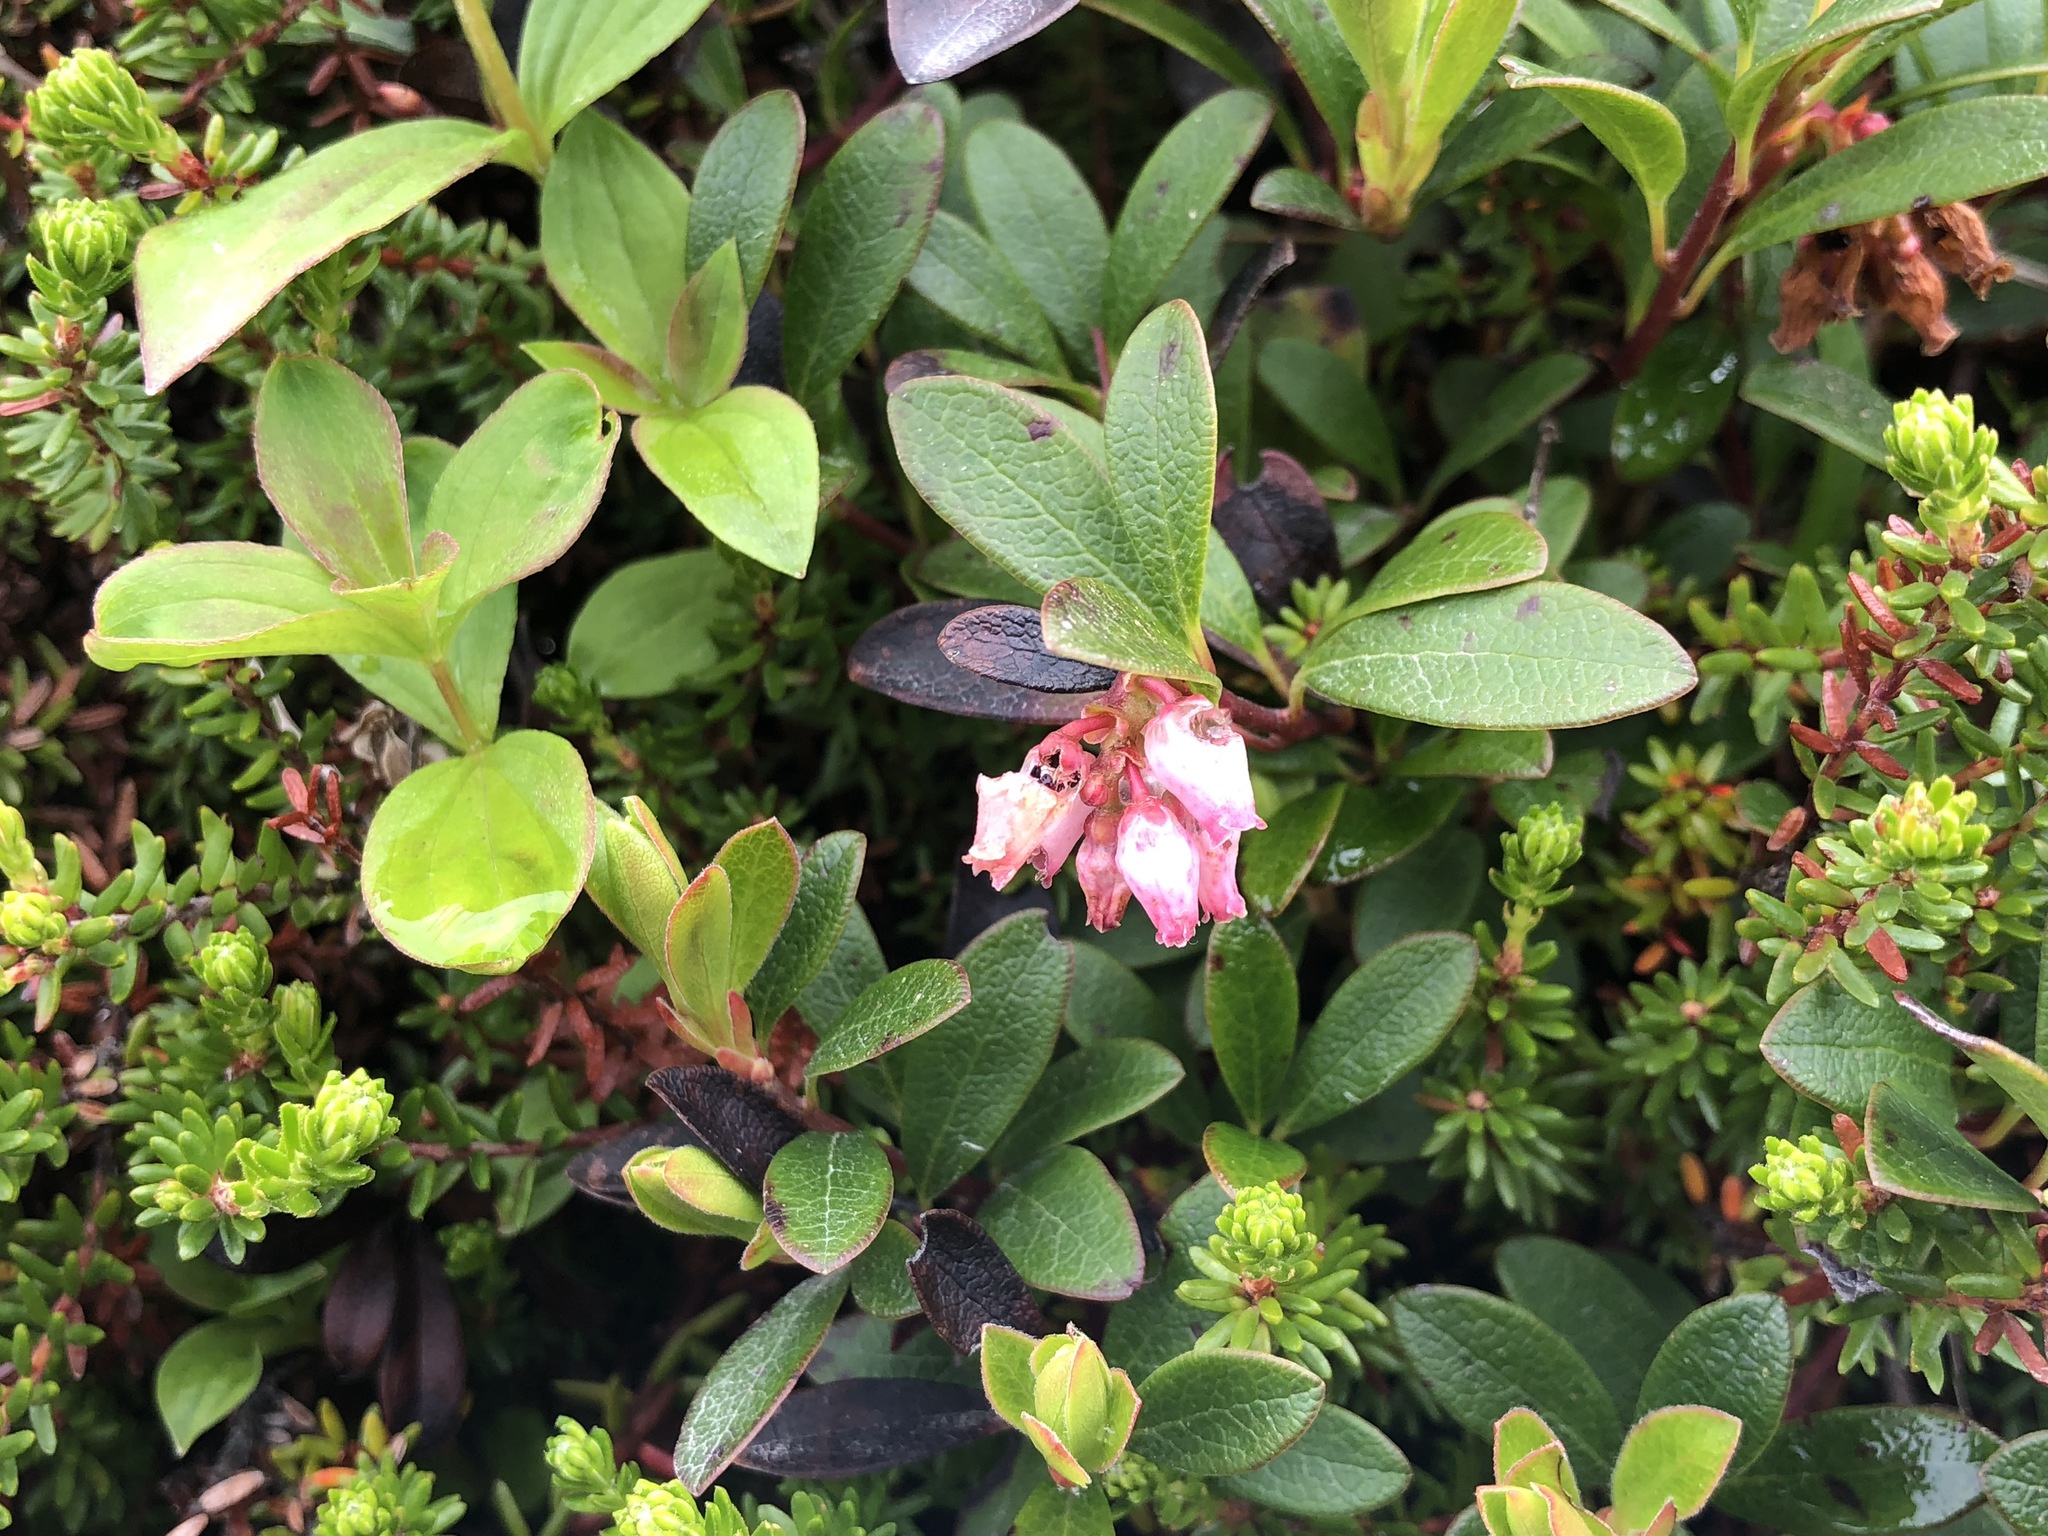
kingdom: Plantae
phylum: Tracheophyta
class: Magnoliopsida
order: Ericales
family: Ericaceae
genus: Arctostaphylos
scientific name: Arctostaphylos uva-ursi
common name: Bearberry
